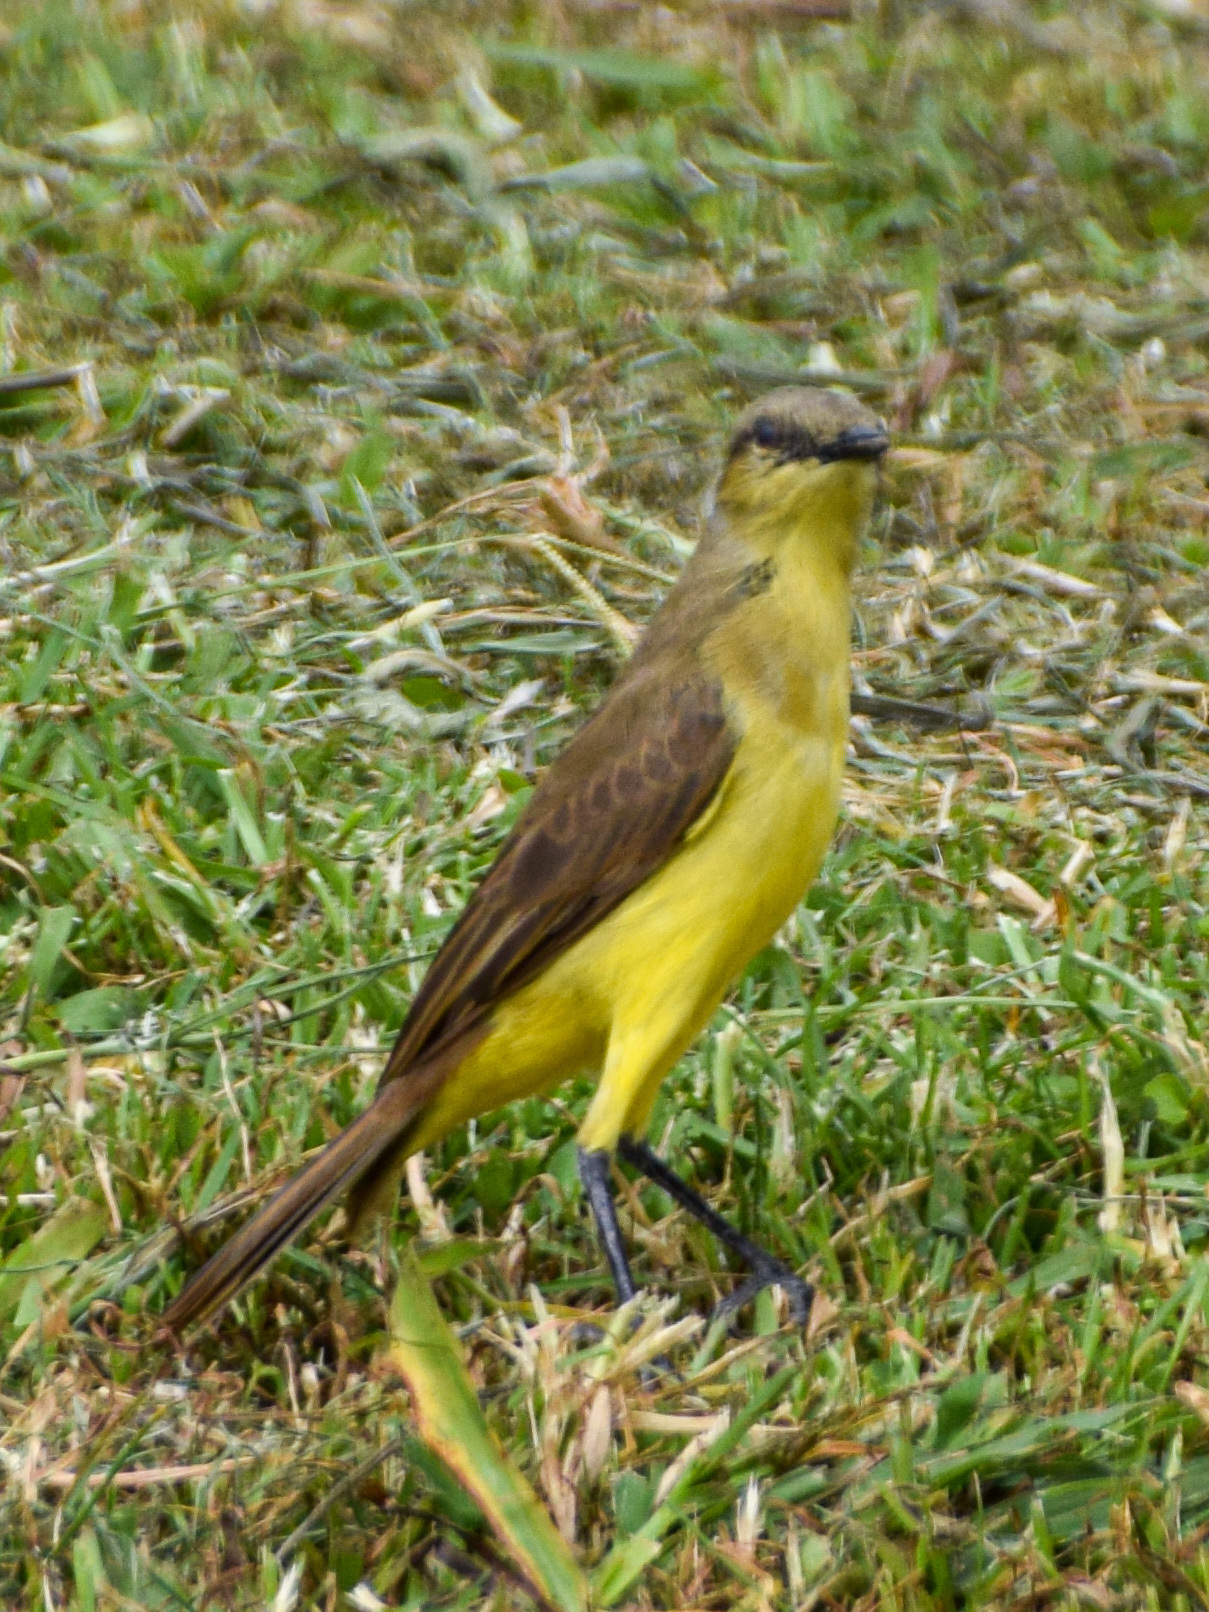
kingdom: Animalia
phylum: Chordata
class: Aves
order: Passeriformes
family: Tyrannidae
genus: Machetornis
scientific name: Machetornis rixosa
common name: Cattle tyrant
